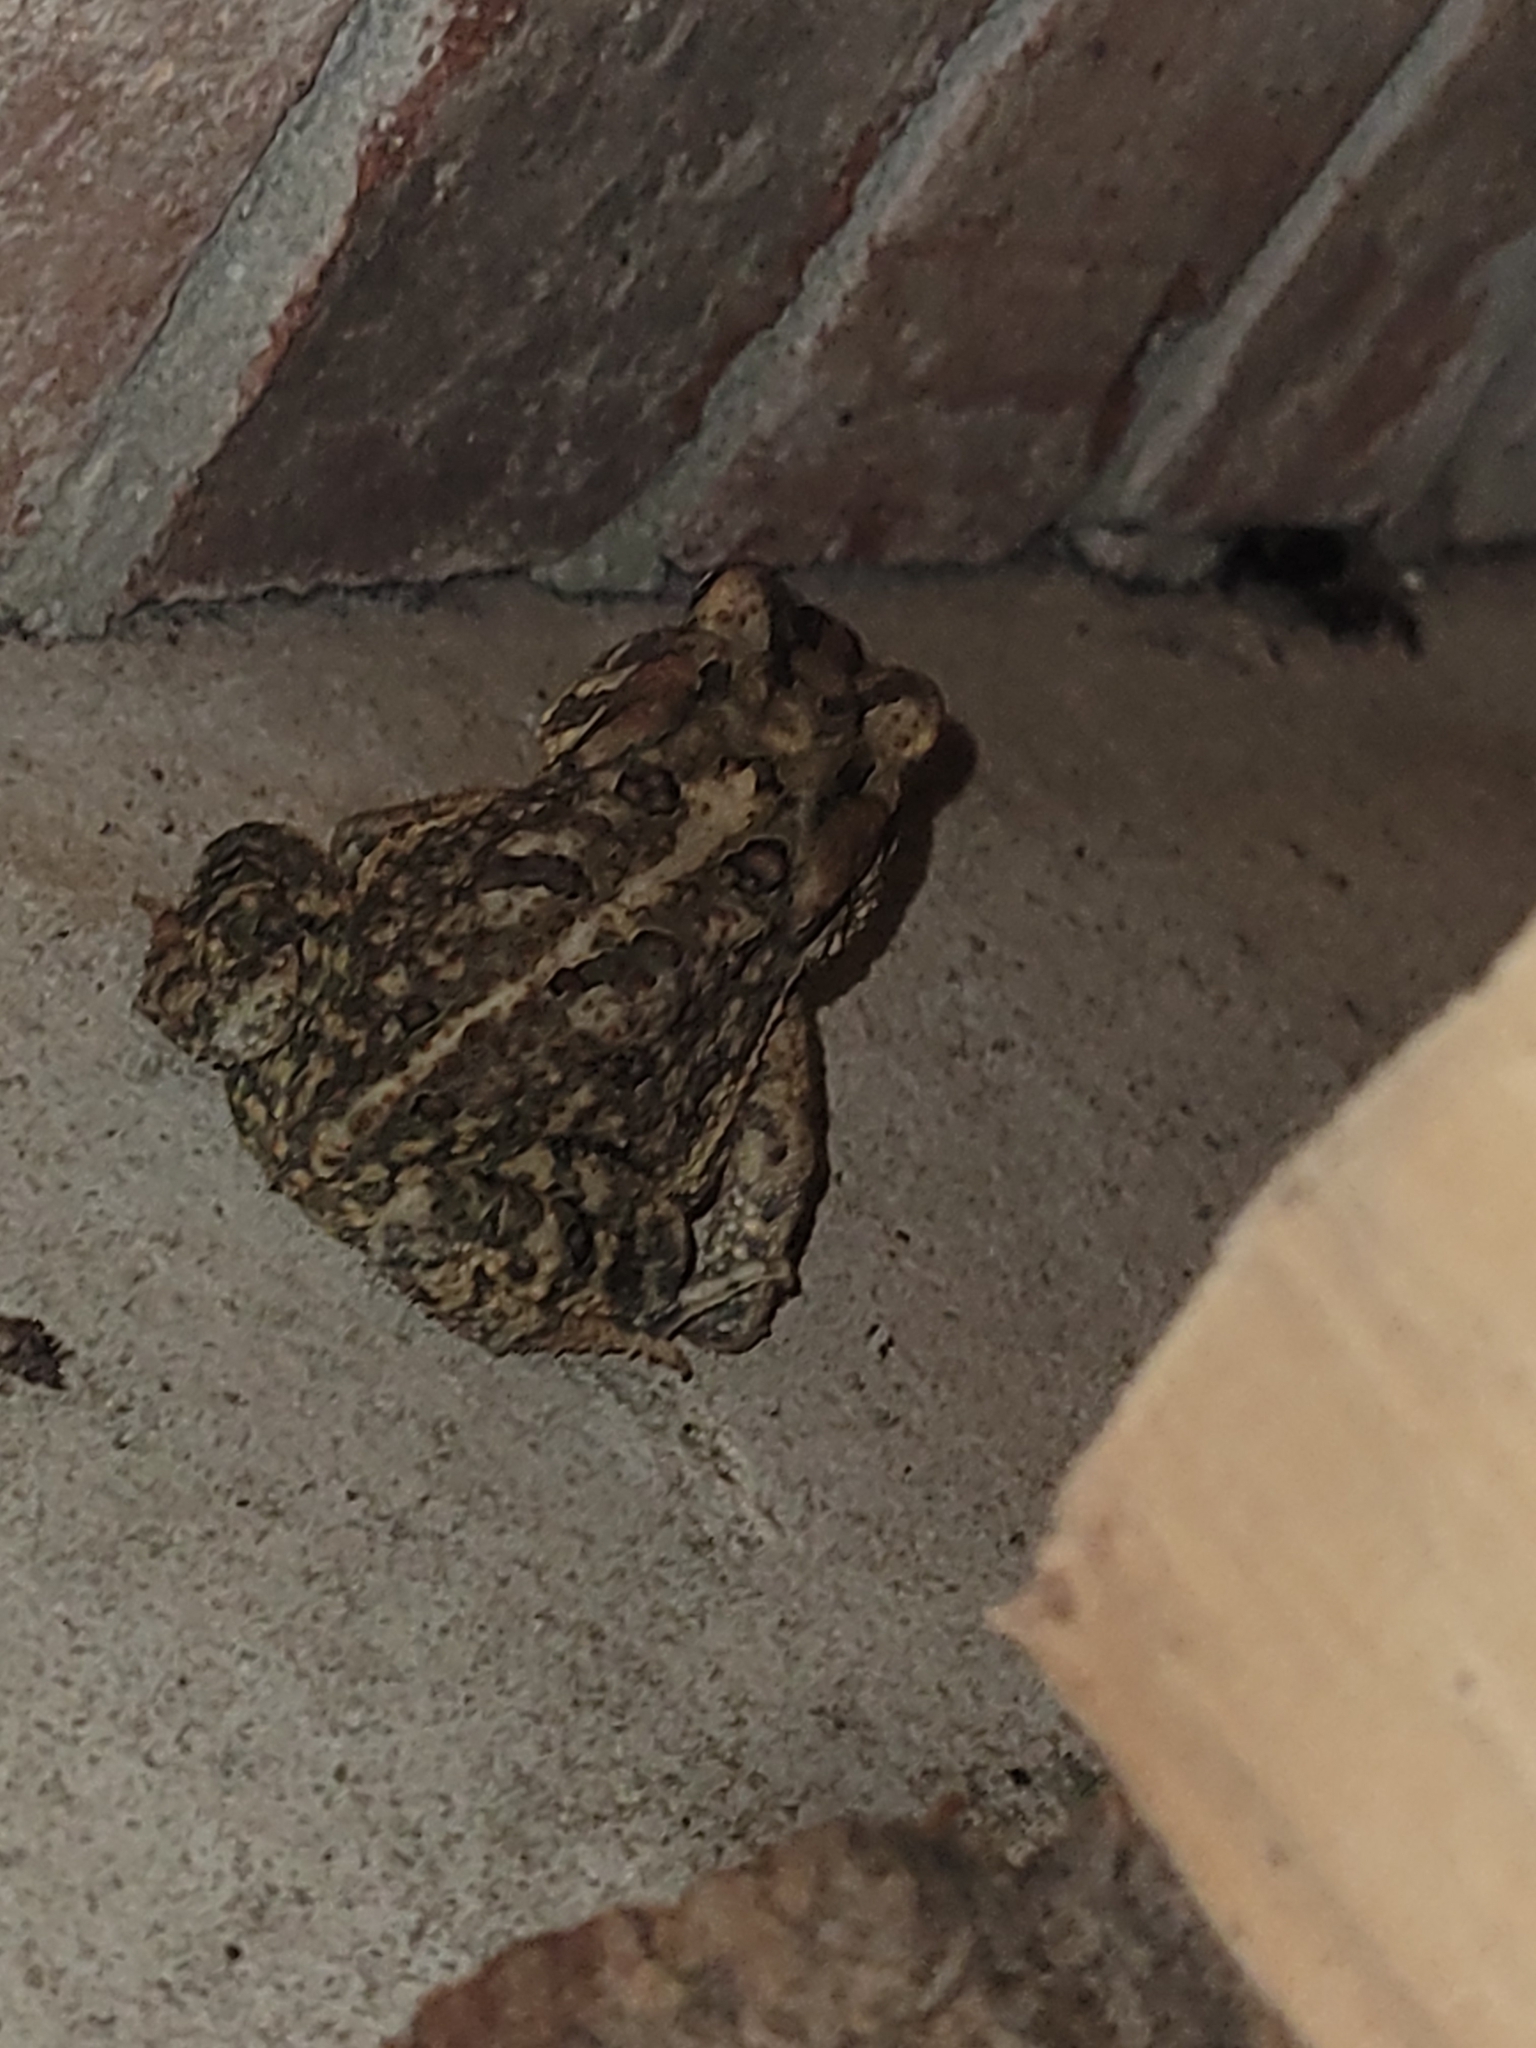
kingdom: Animalia
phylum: Chordata
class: Amphibia
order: Anura
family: Bufonidae
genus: Anaxyrus
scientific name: Anaxyrus terrestris
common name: Southern toad
